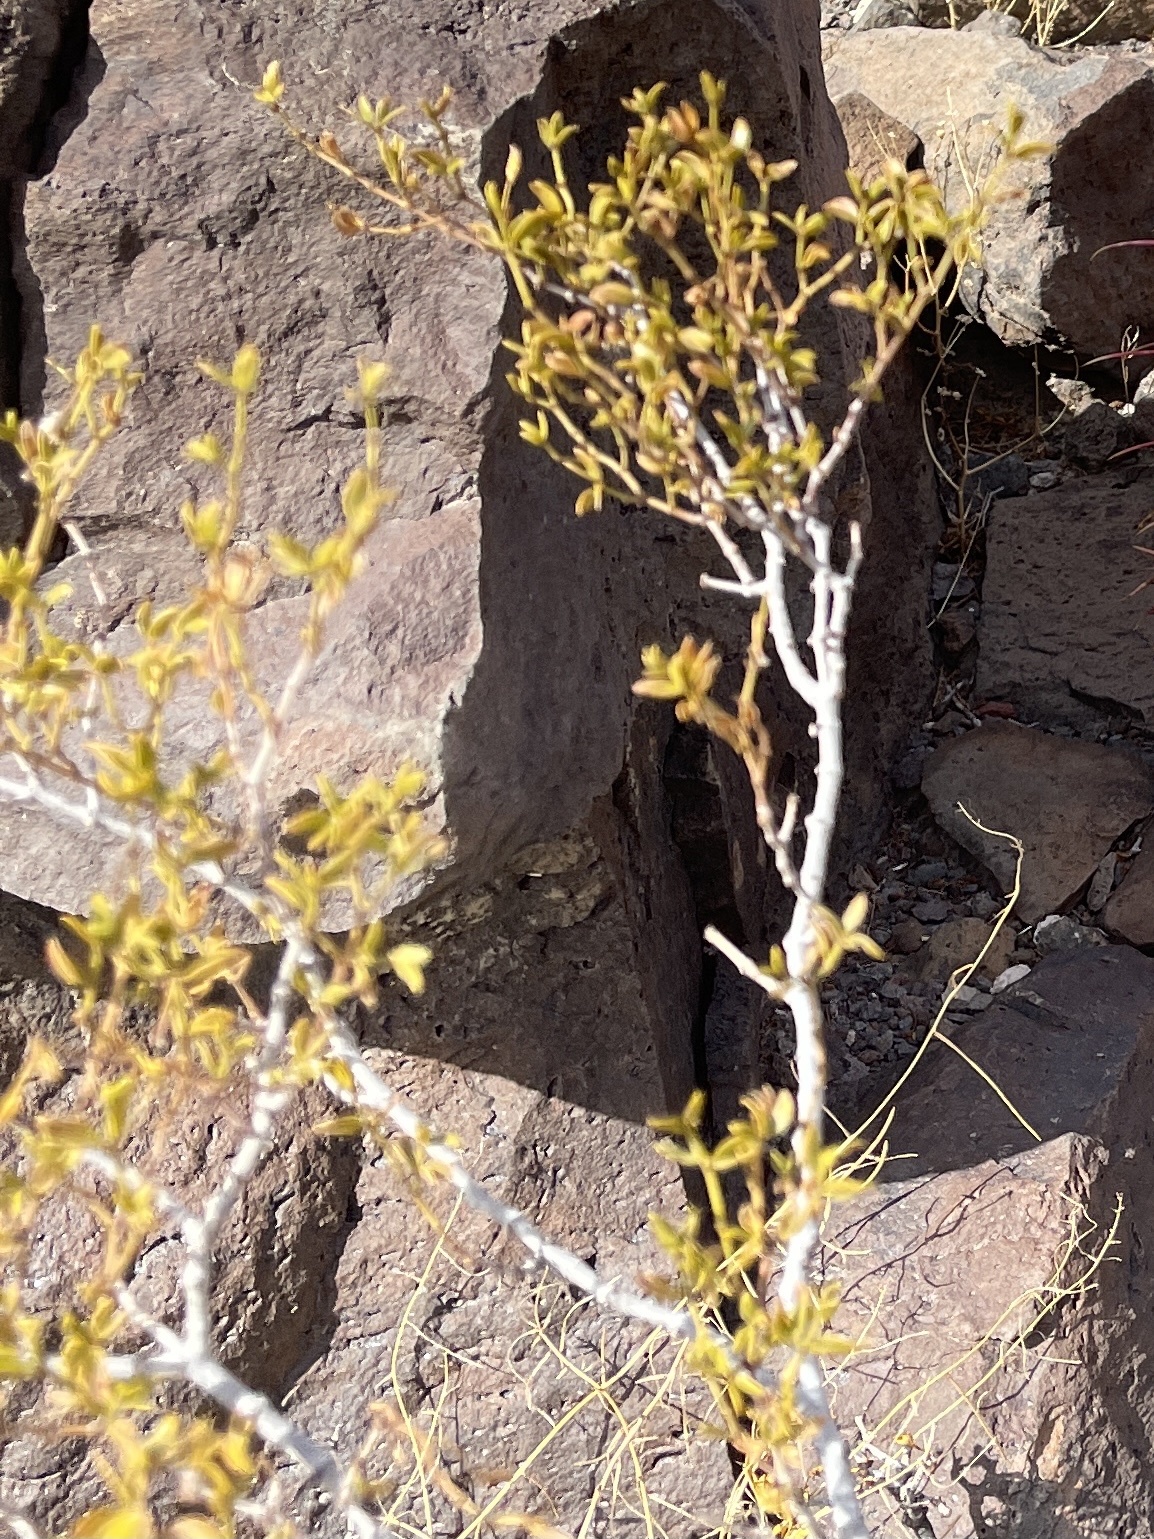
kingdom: Plantae
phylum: Tracheophyta
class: Magnoliopsida
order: Zygophyllales
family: Zygophyllaceae
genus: Larrea
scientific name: Larrea tridentata
